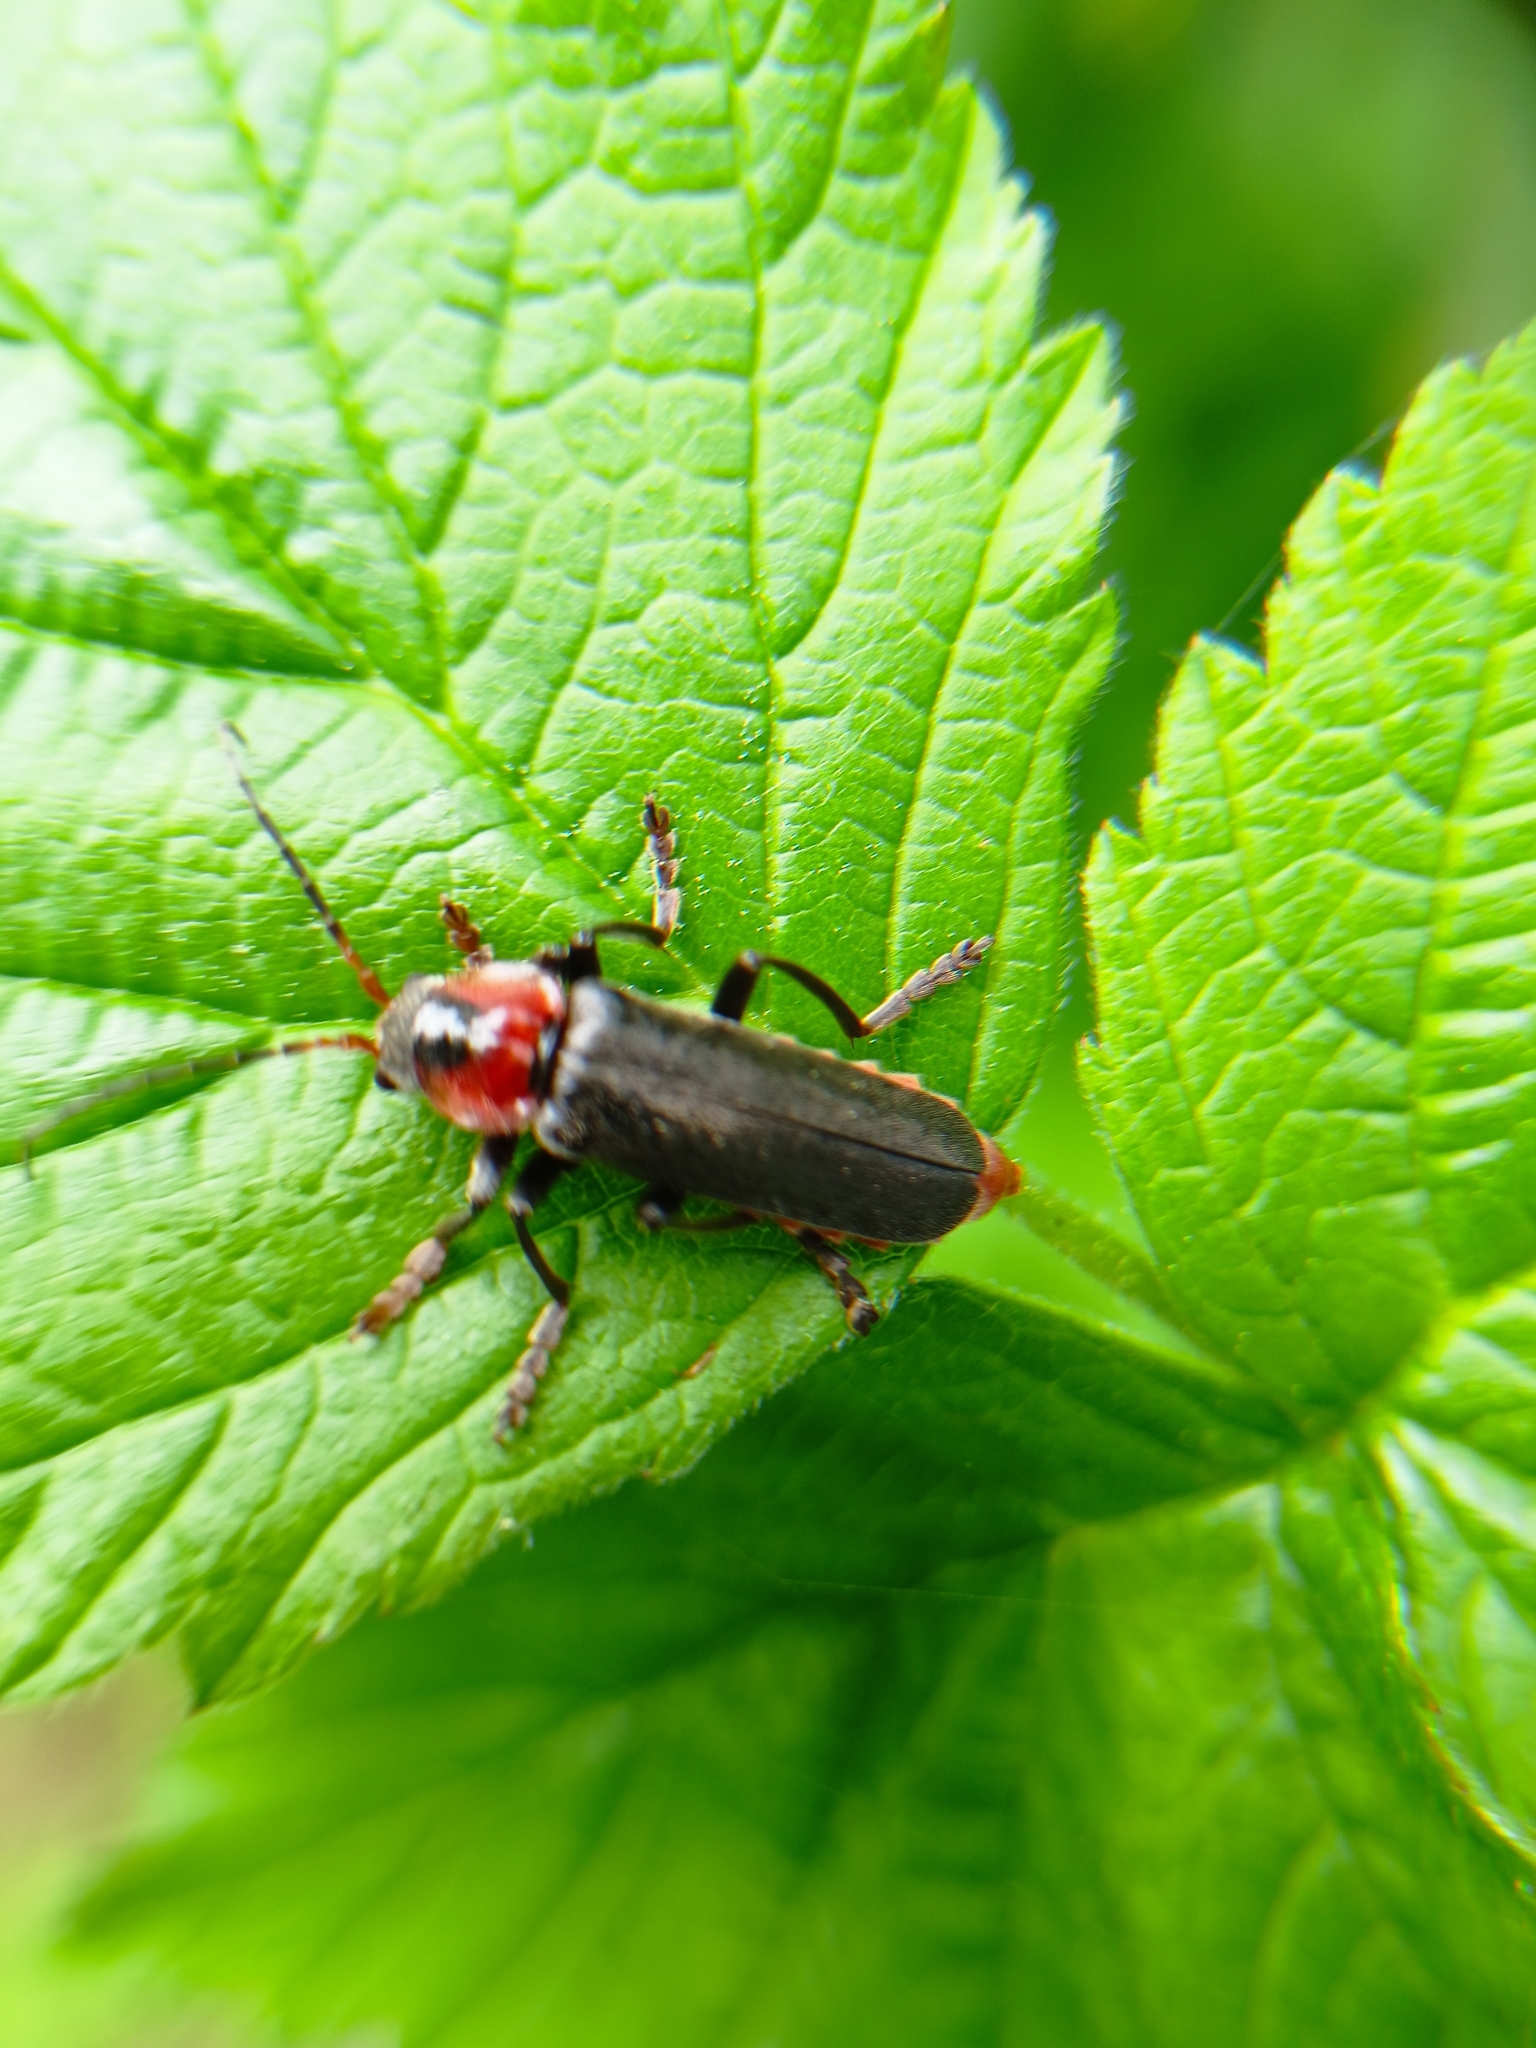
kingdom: Animalia
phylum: Arthropoda
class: Insecta
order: Coleoptera
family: Cantharidae
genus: Cantharis
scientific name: Cantharis fusca
